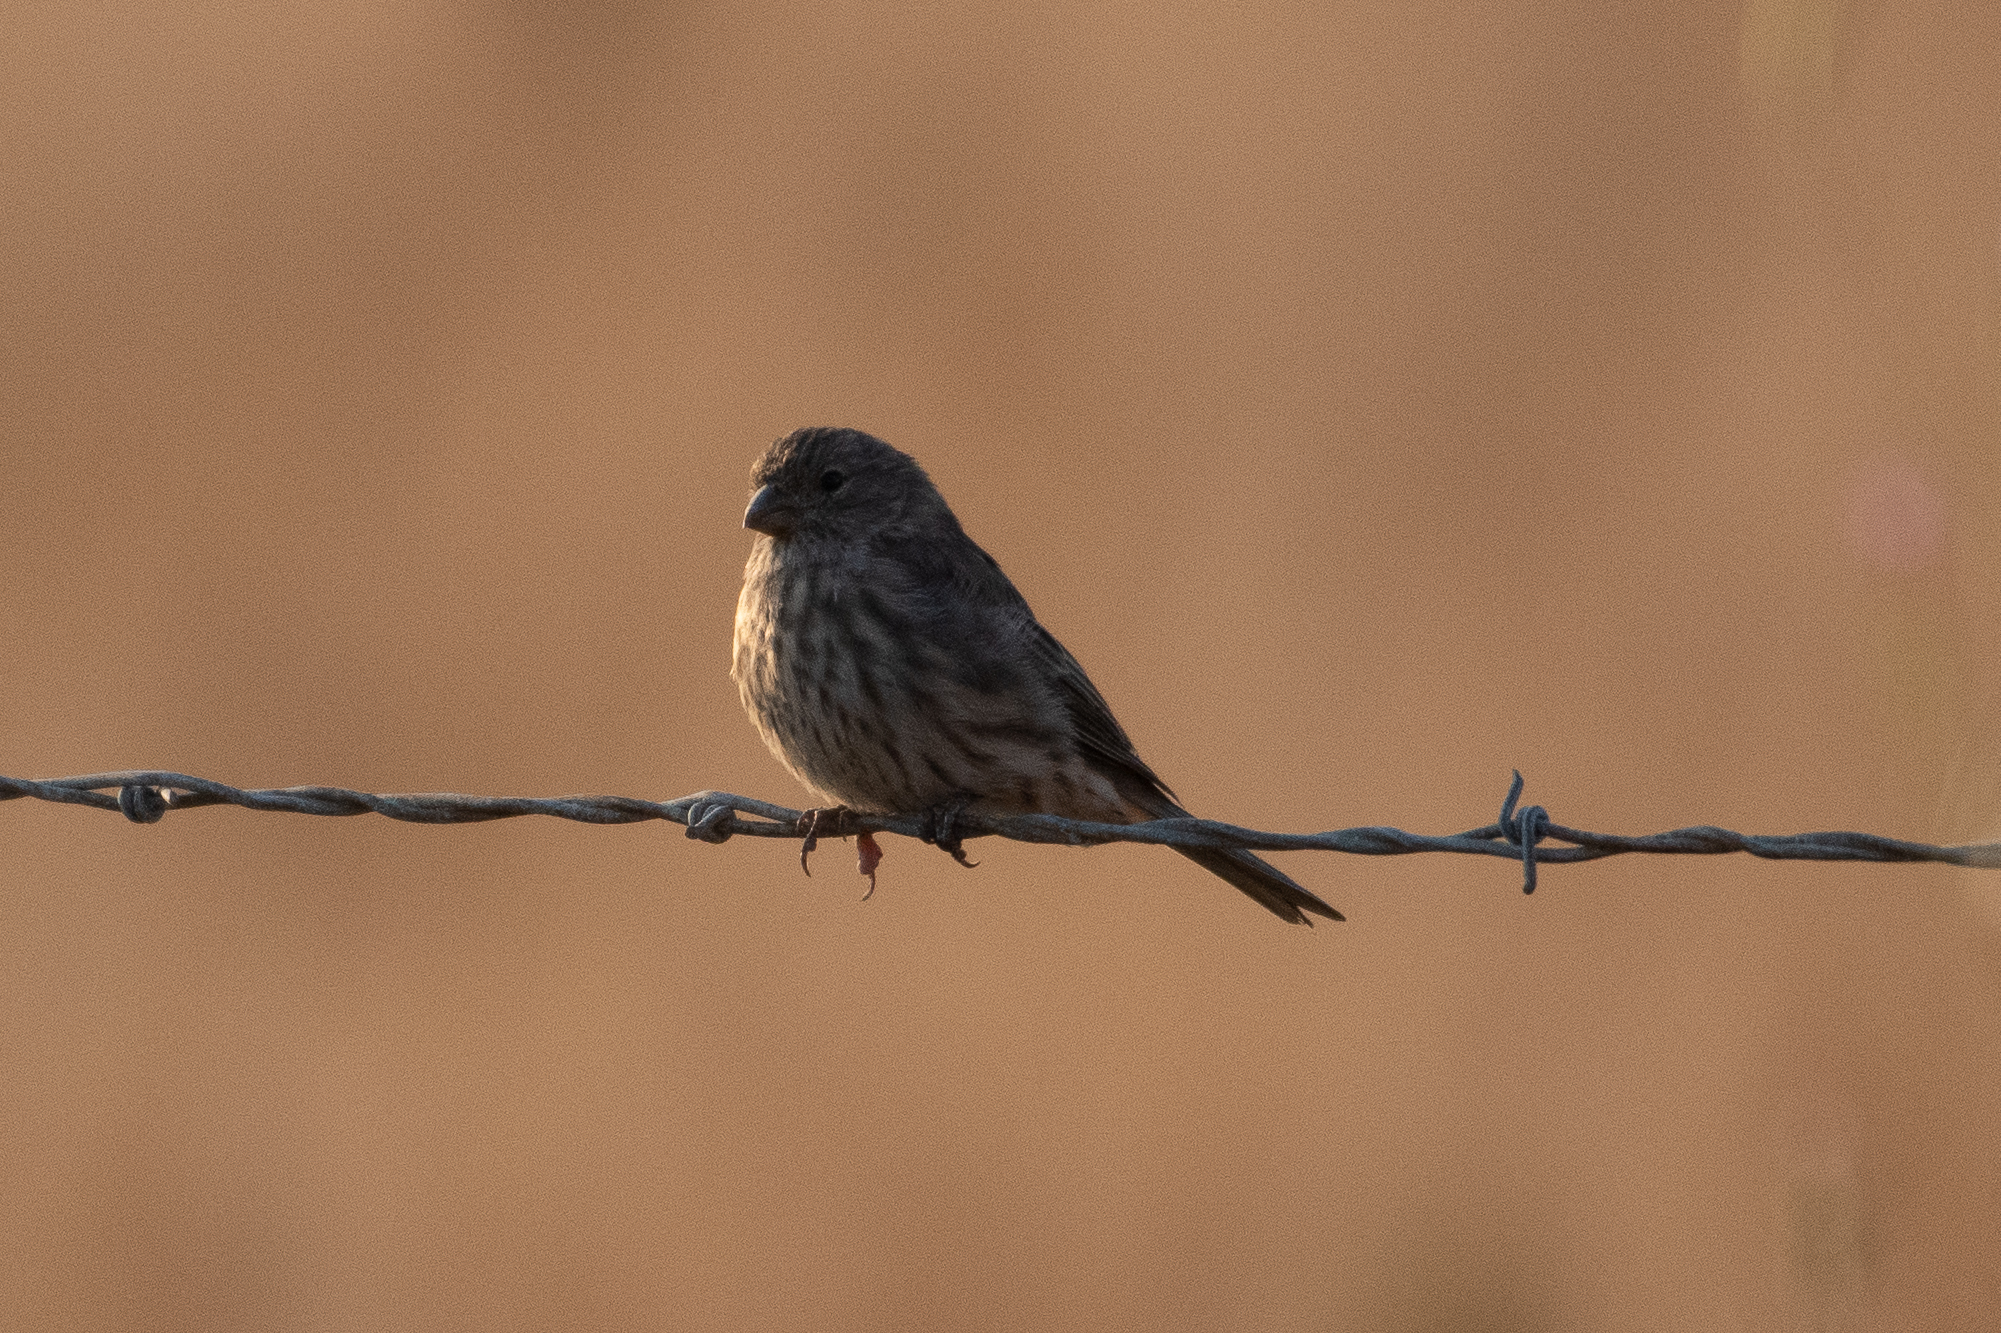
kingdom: Animalia
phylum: Chordata
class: Aves
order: Passeriformes
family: Fringillidae
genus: Haemorhous
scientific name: Haemorhous mexicanus
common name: House finch
